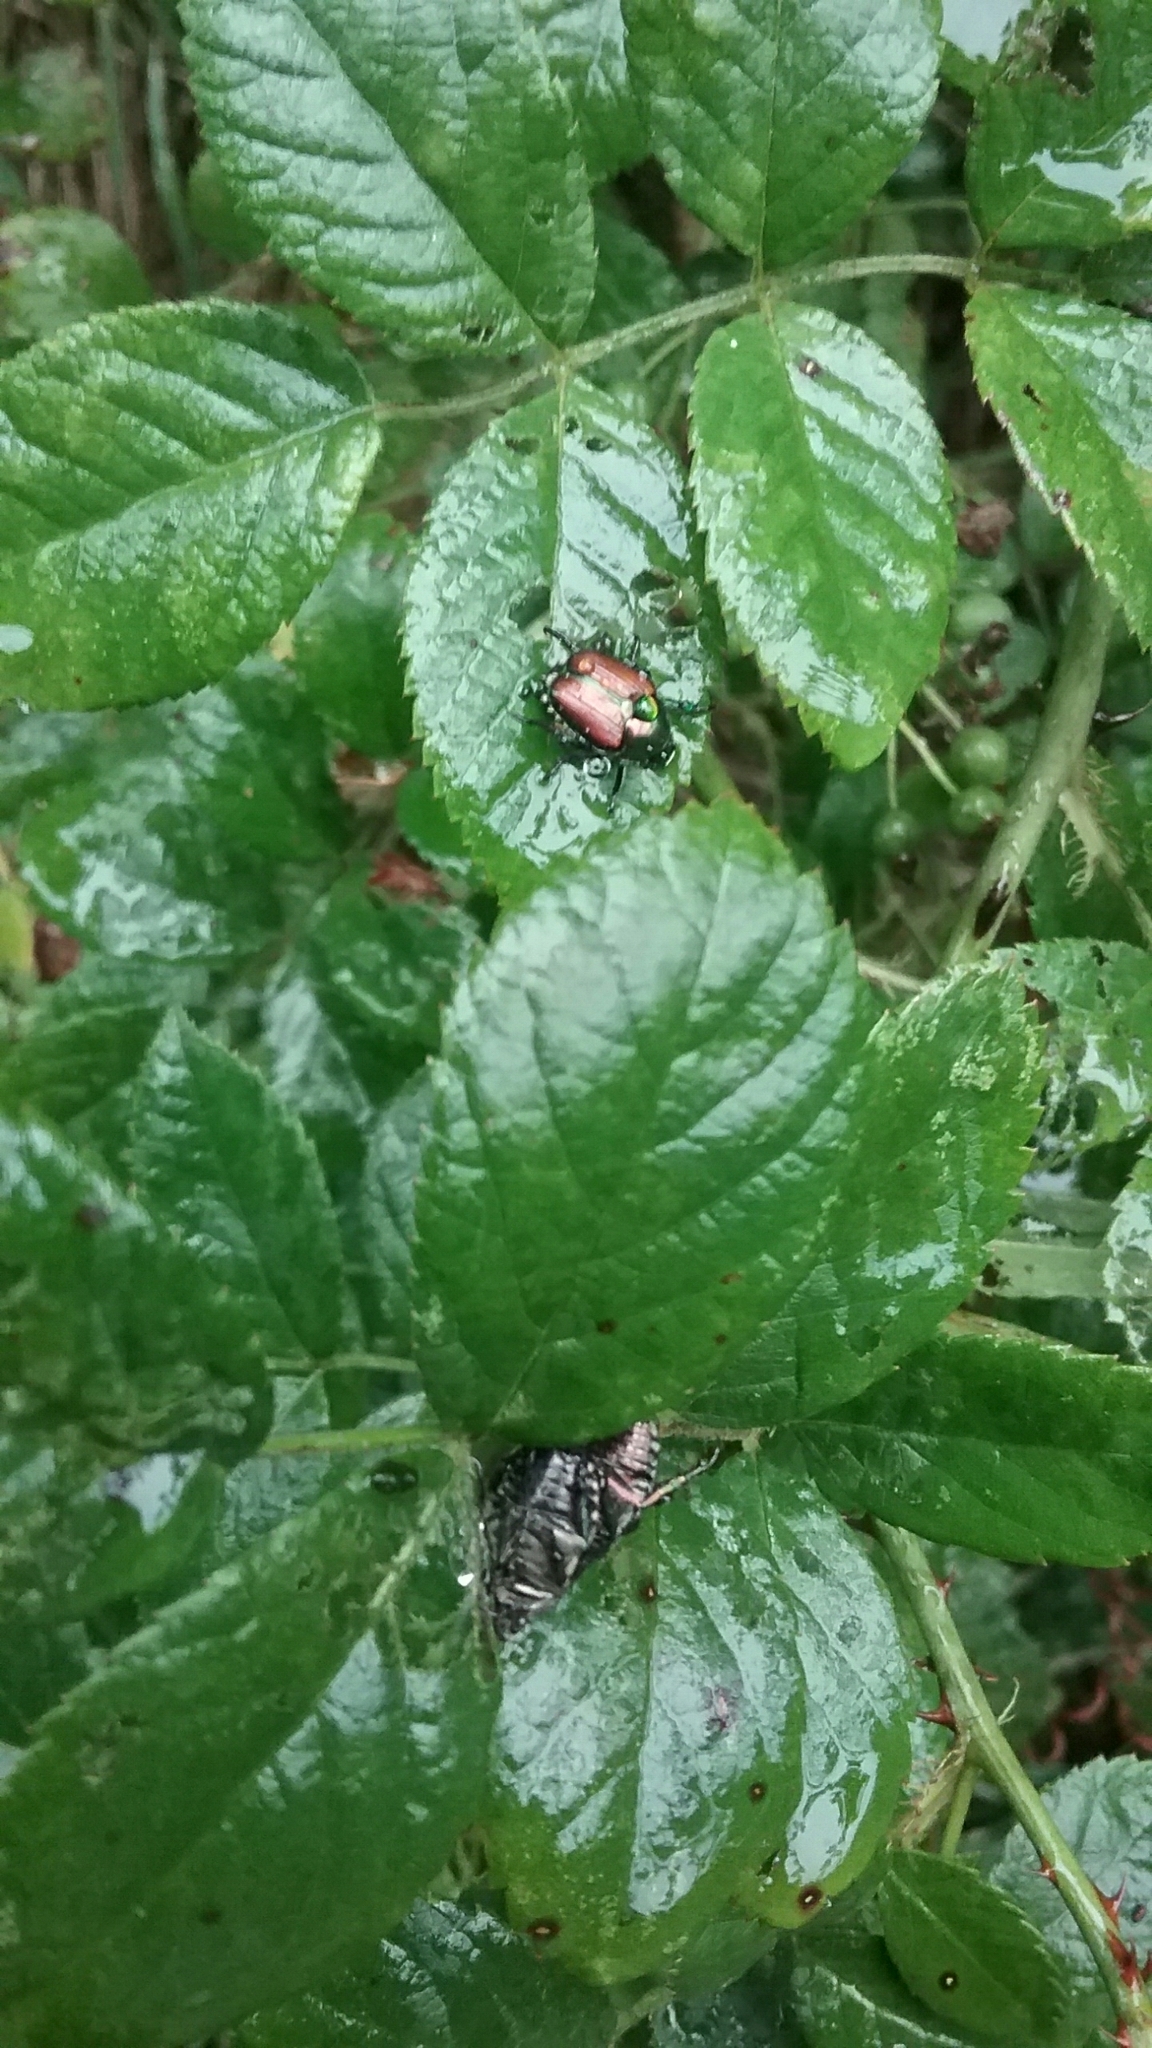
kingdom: Animalia
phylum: Arthropoda
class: Insecta
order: Coleoptera
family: Scarabaeidae
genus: Popillia
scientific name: Popillia japonica
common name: Japanese beetle
